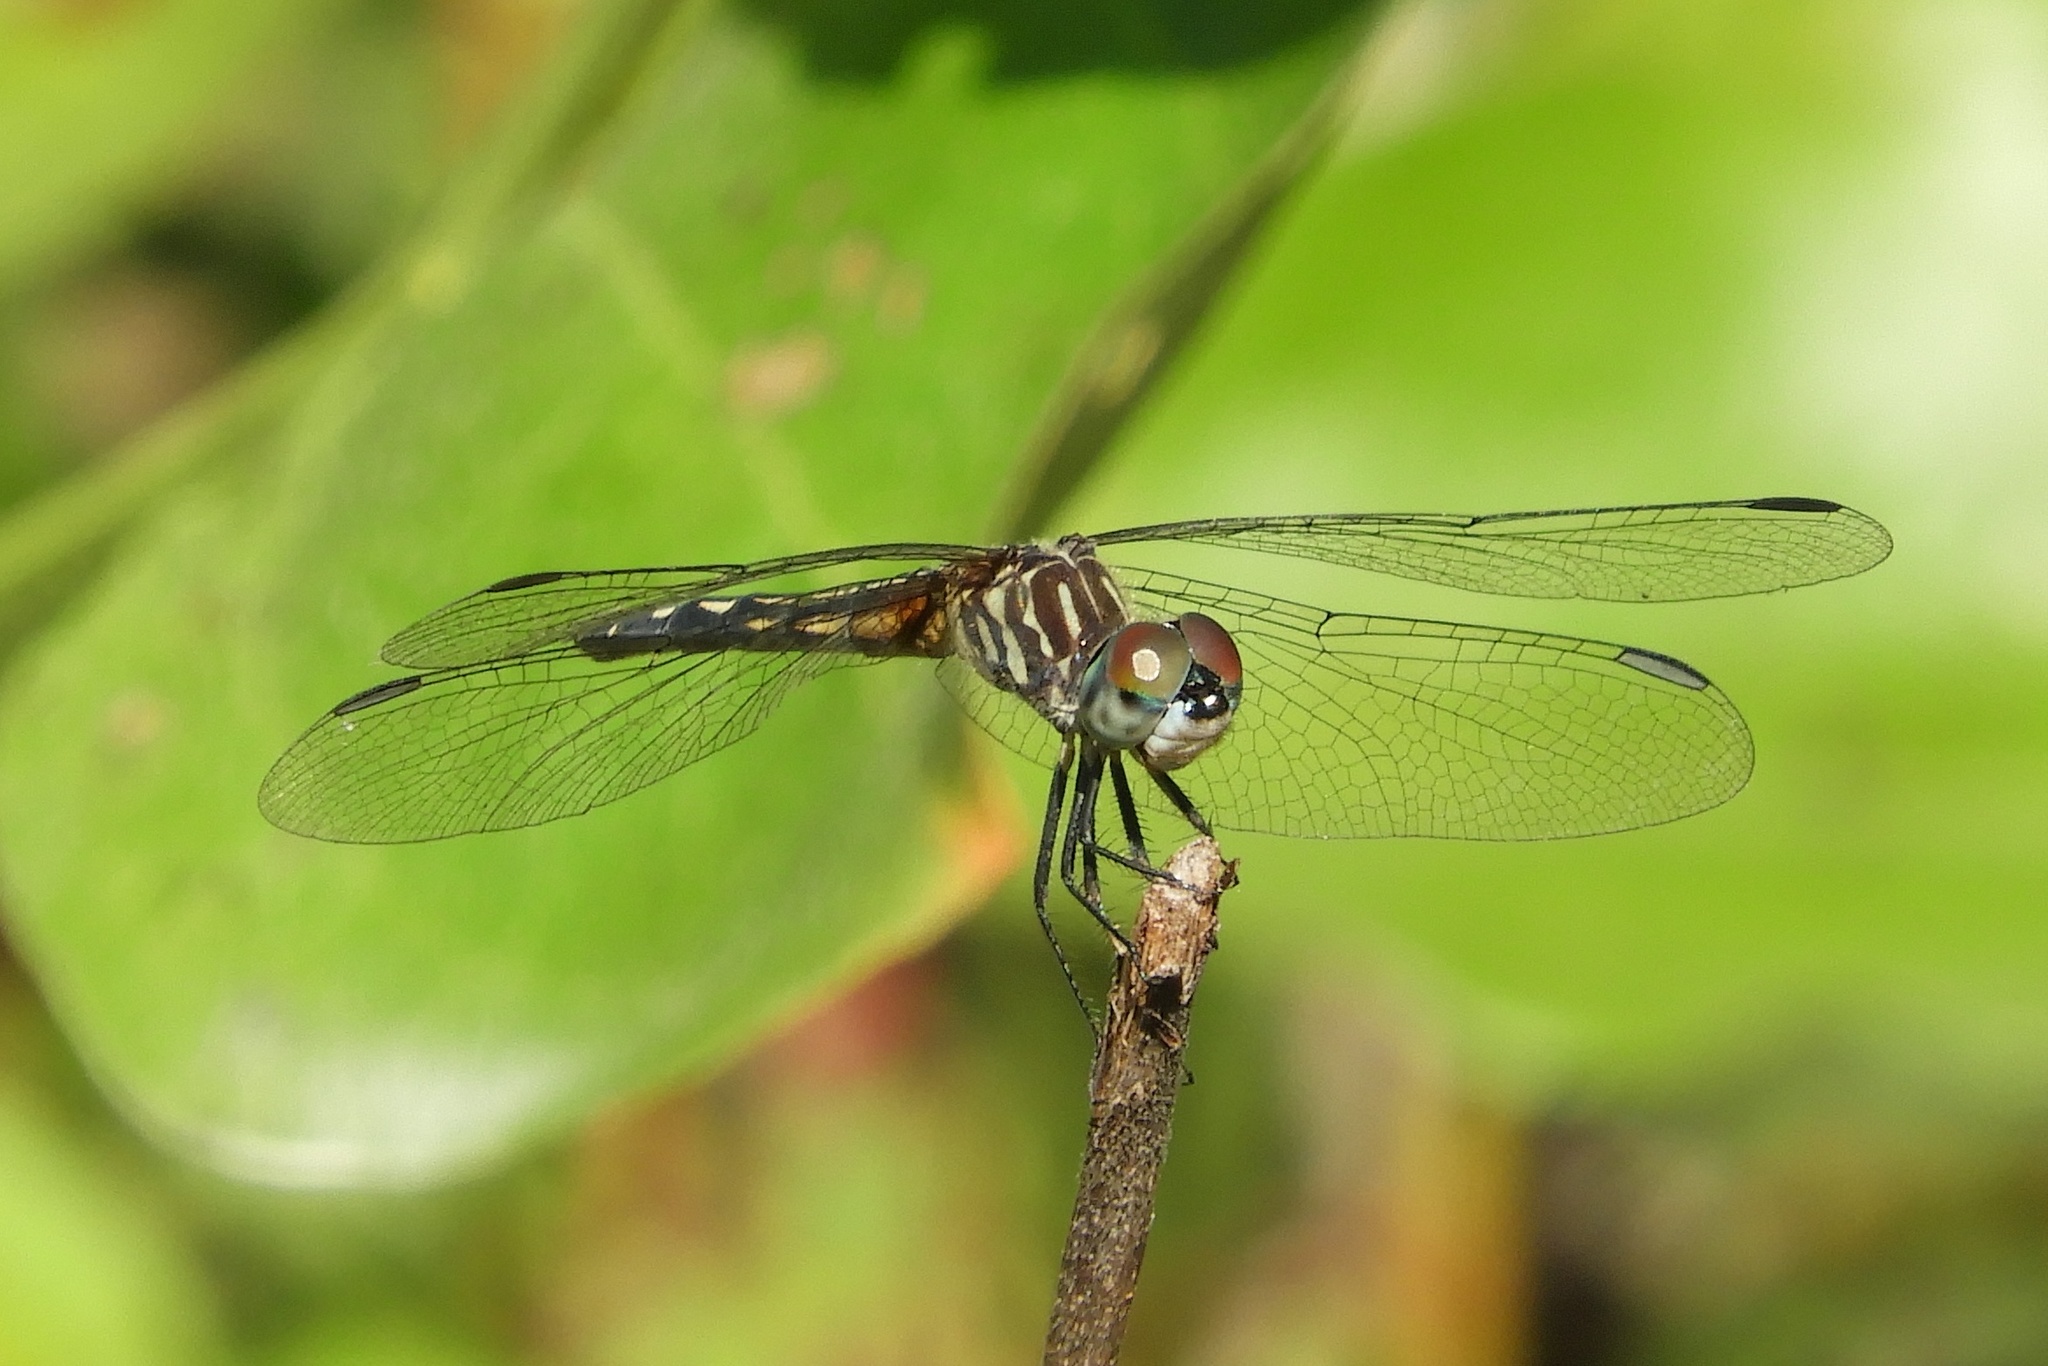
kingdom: Animalia
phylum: Arthropoda
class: Insecta
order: Odonata
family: Libellulidae
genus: Pachydiplax
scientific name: Pachydiplax longipennis
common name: Blue dasher
